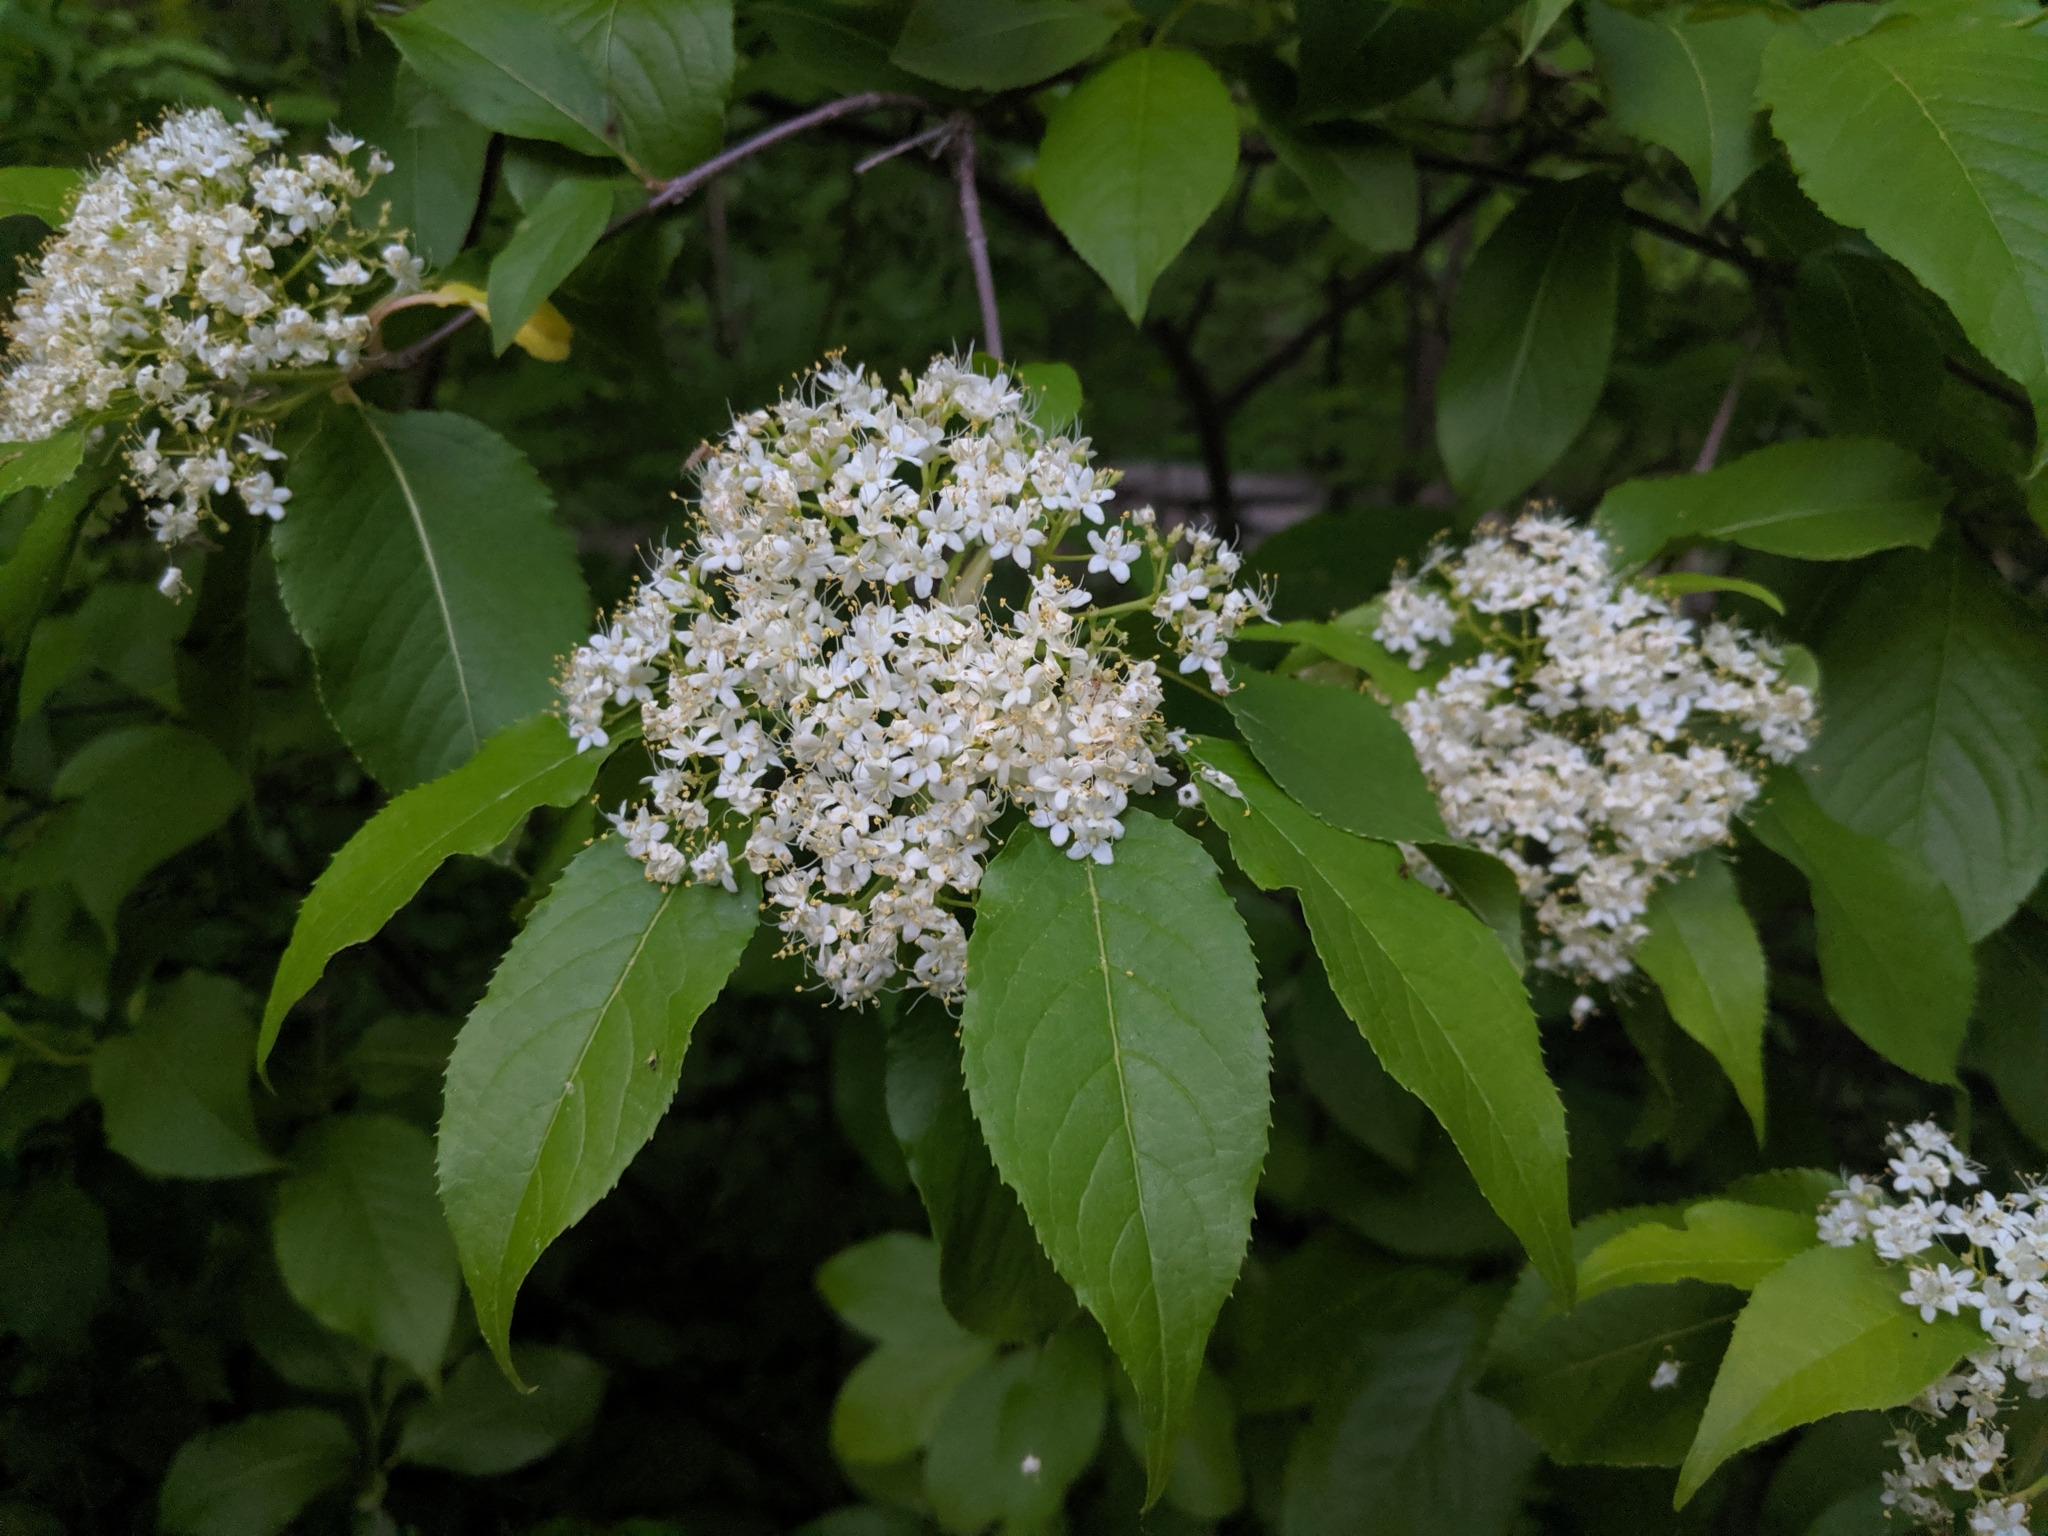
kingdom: Plantae
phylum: Tracheophyta
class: Magnoliopsida
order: Dipsacales
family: Viburnaceae
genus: Viburnum
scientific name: Viburnum lentago
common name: Black haw
